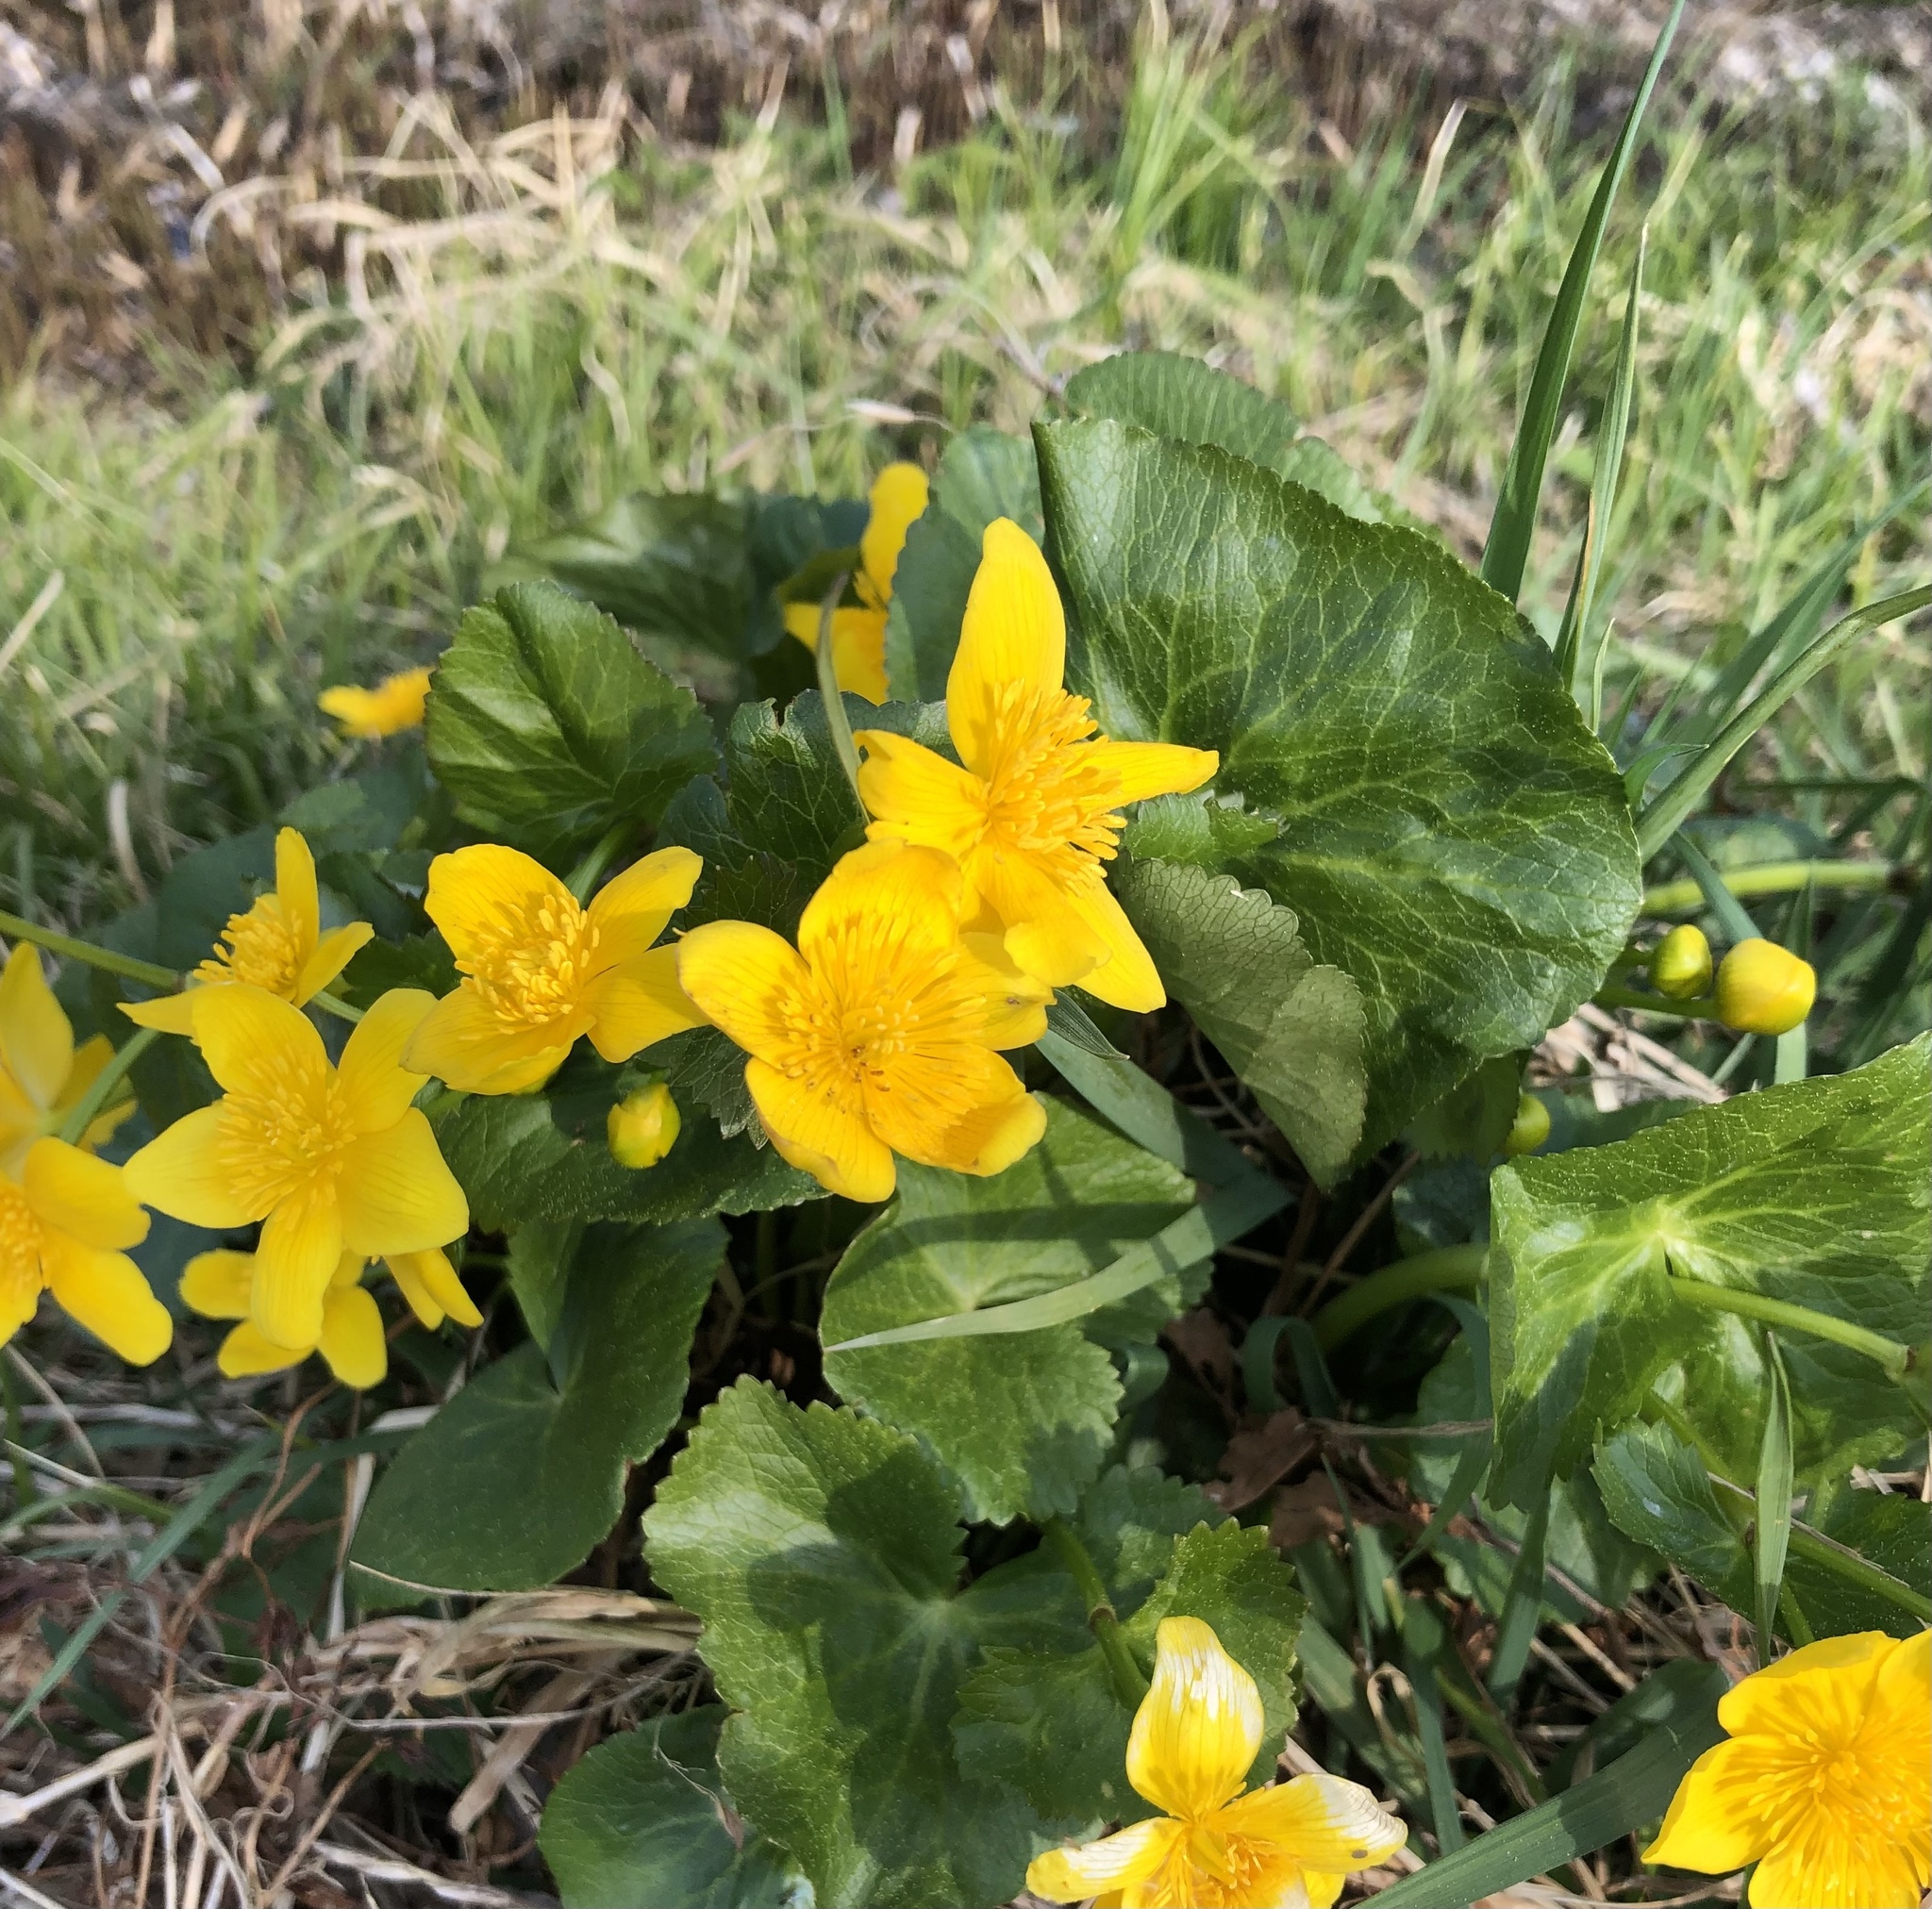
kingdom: Plantae
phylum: Tracheophyta
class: Magnoliopsida
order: Ranunculales
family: Ranunculaceae
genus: Caltha
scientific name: Caltha palustris
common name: Marsh marigold
